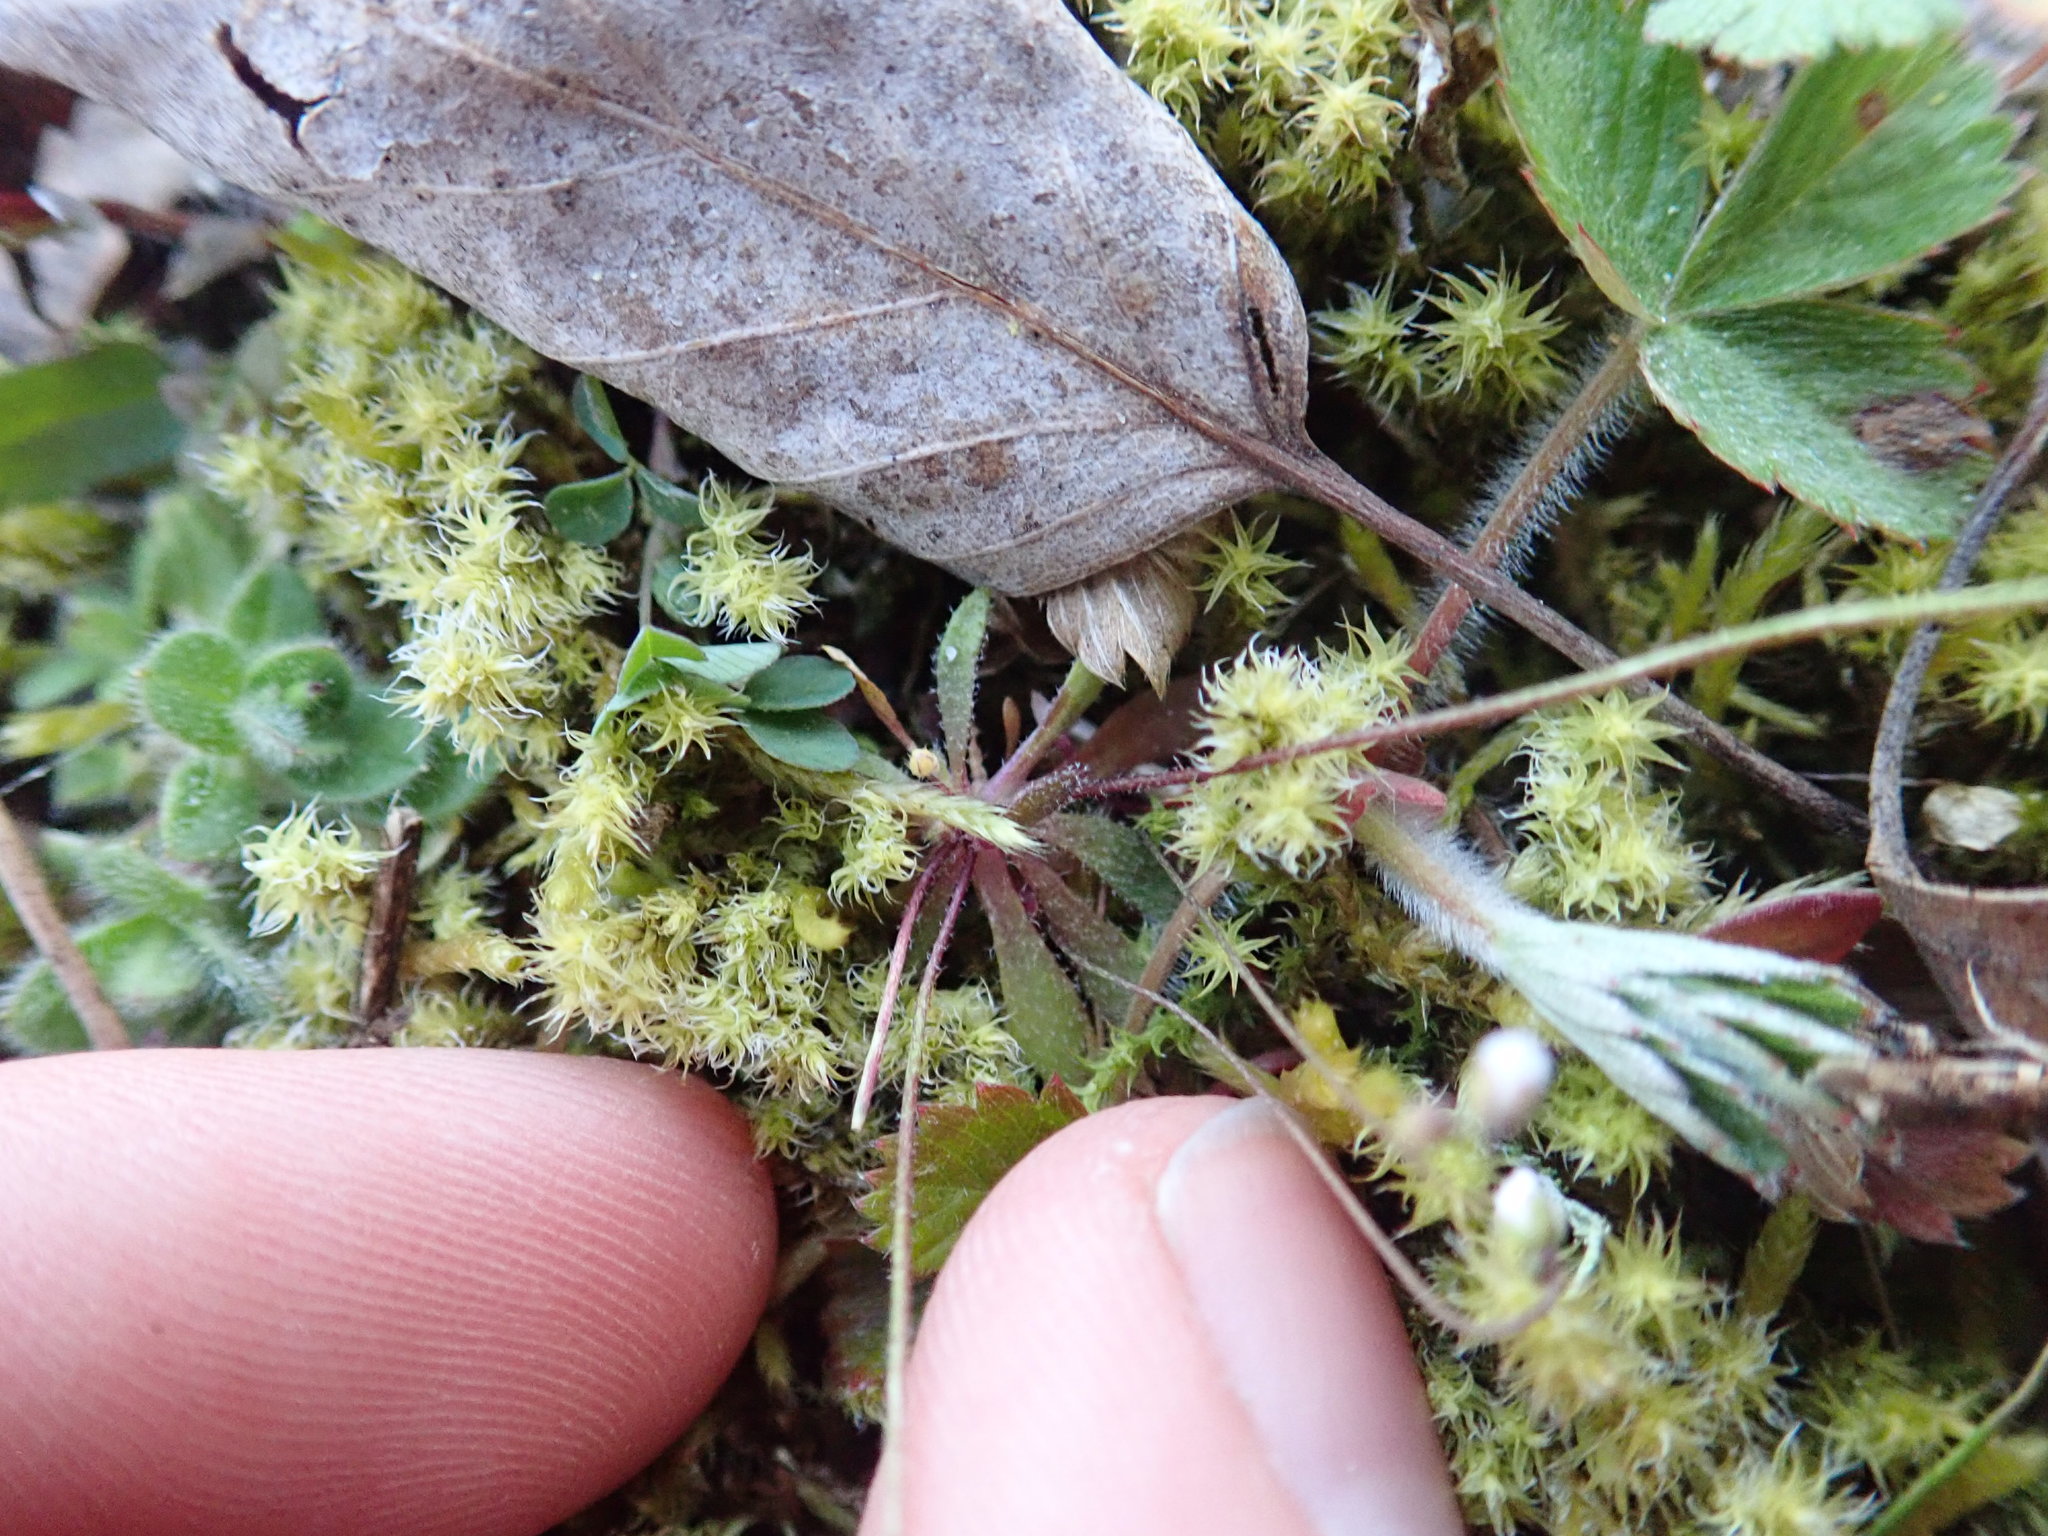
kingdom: Plantae
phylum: Tracheophyta
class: Magnoliopsida
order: Brassicales
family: Brassicaceae
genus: Draba
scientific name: Draba verna
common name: Spring draba
